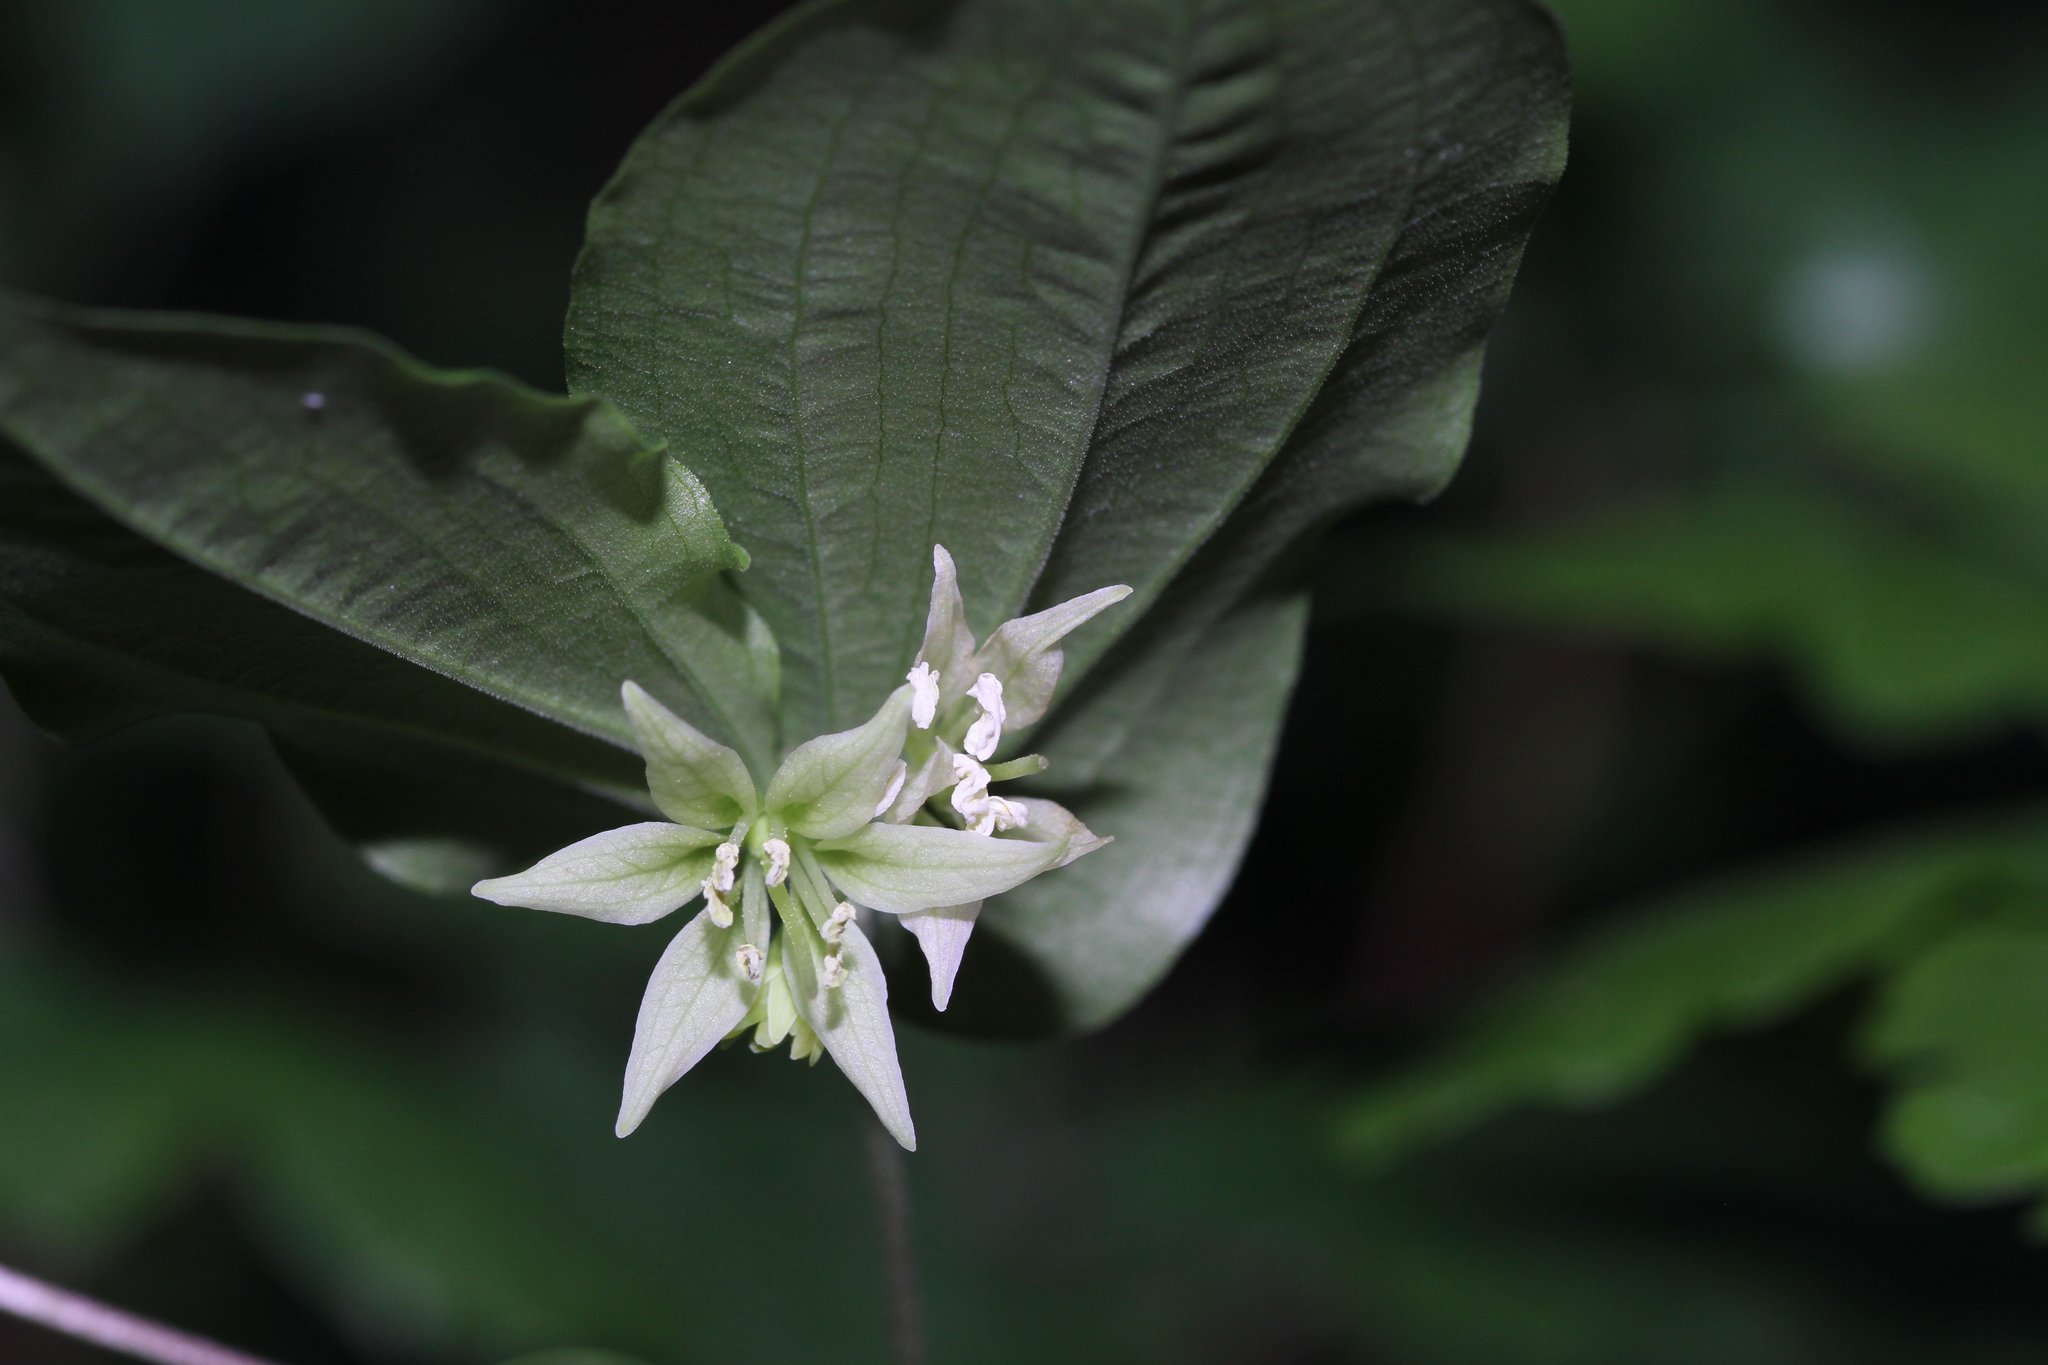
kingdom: Plantae
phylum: Tracheophyta
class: Liliopsida
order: Liliales
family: Liliaceae
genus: Prosartes
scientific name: Prosartes hookeri
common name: Fairy-bells
